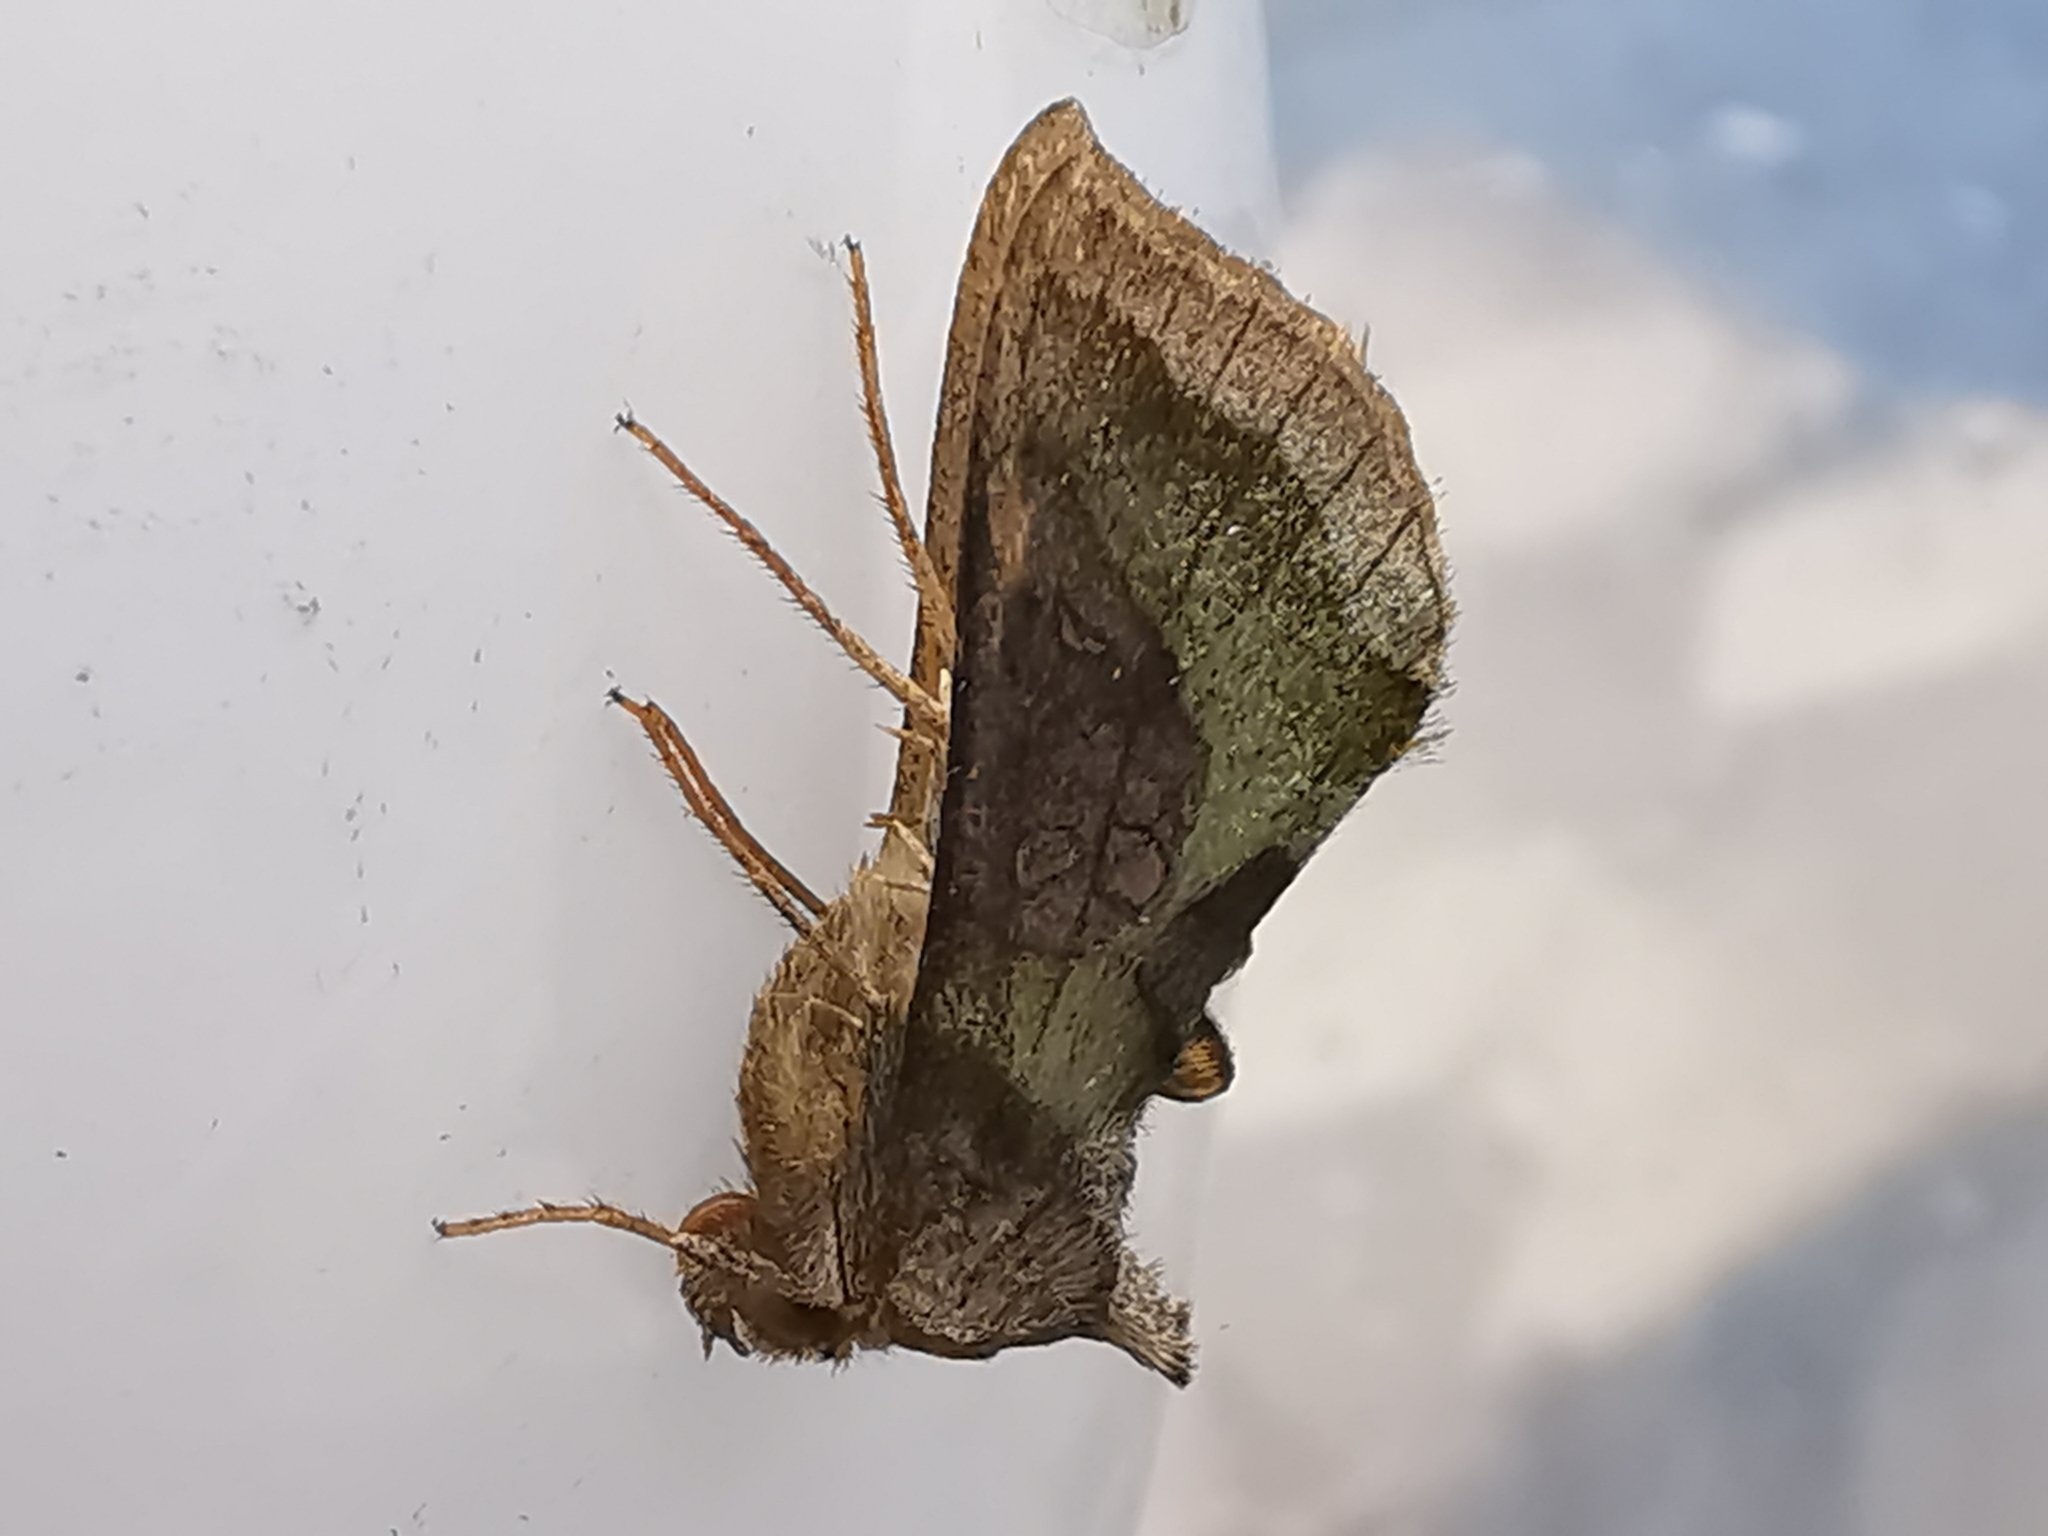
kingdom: Animalia
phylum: Arthropoda
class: Insecta
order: Lepidoptera
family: Noctuidae
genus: Diachrysia
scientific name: Diachrysia chrysitis
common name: Burnished brass
